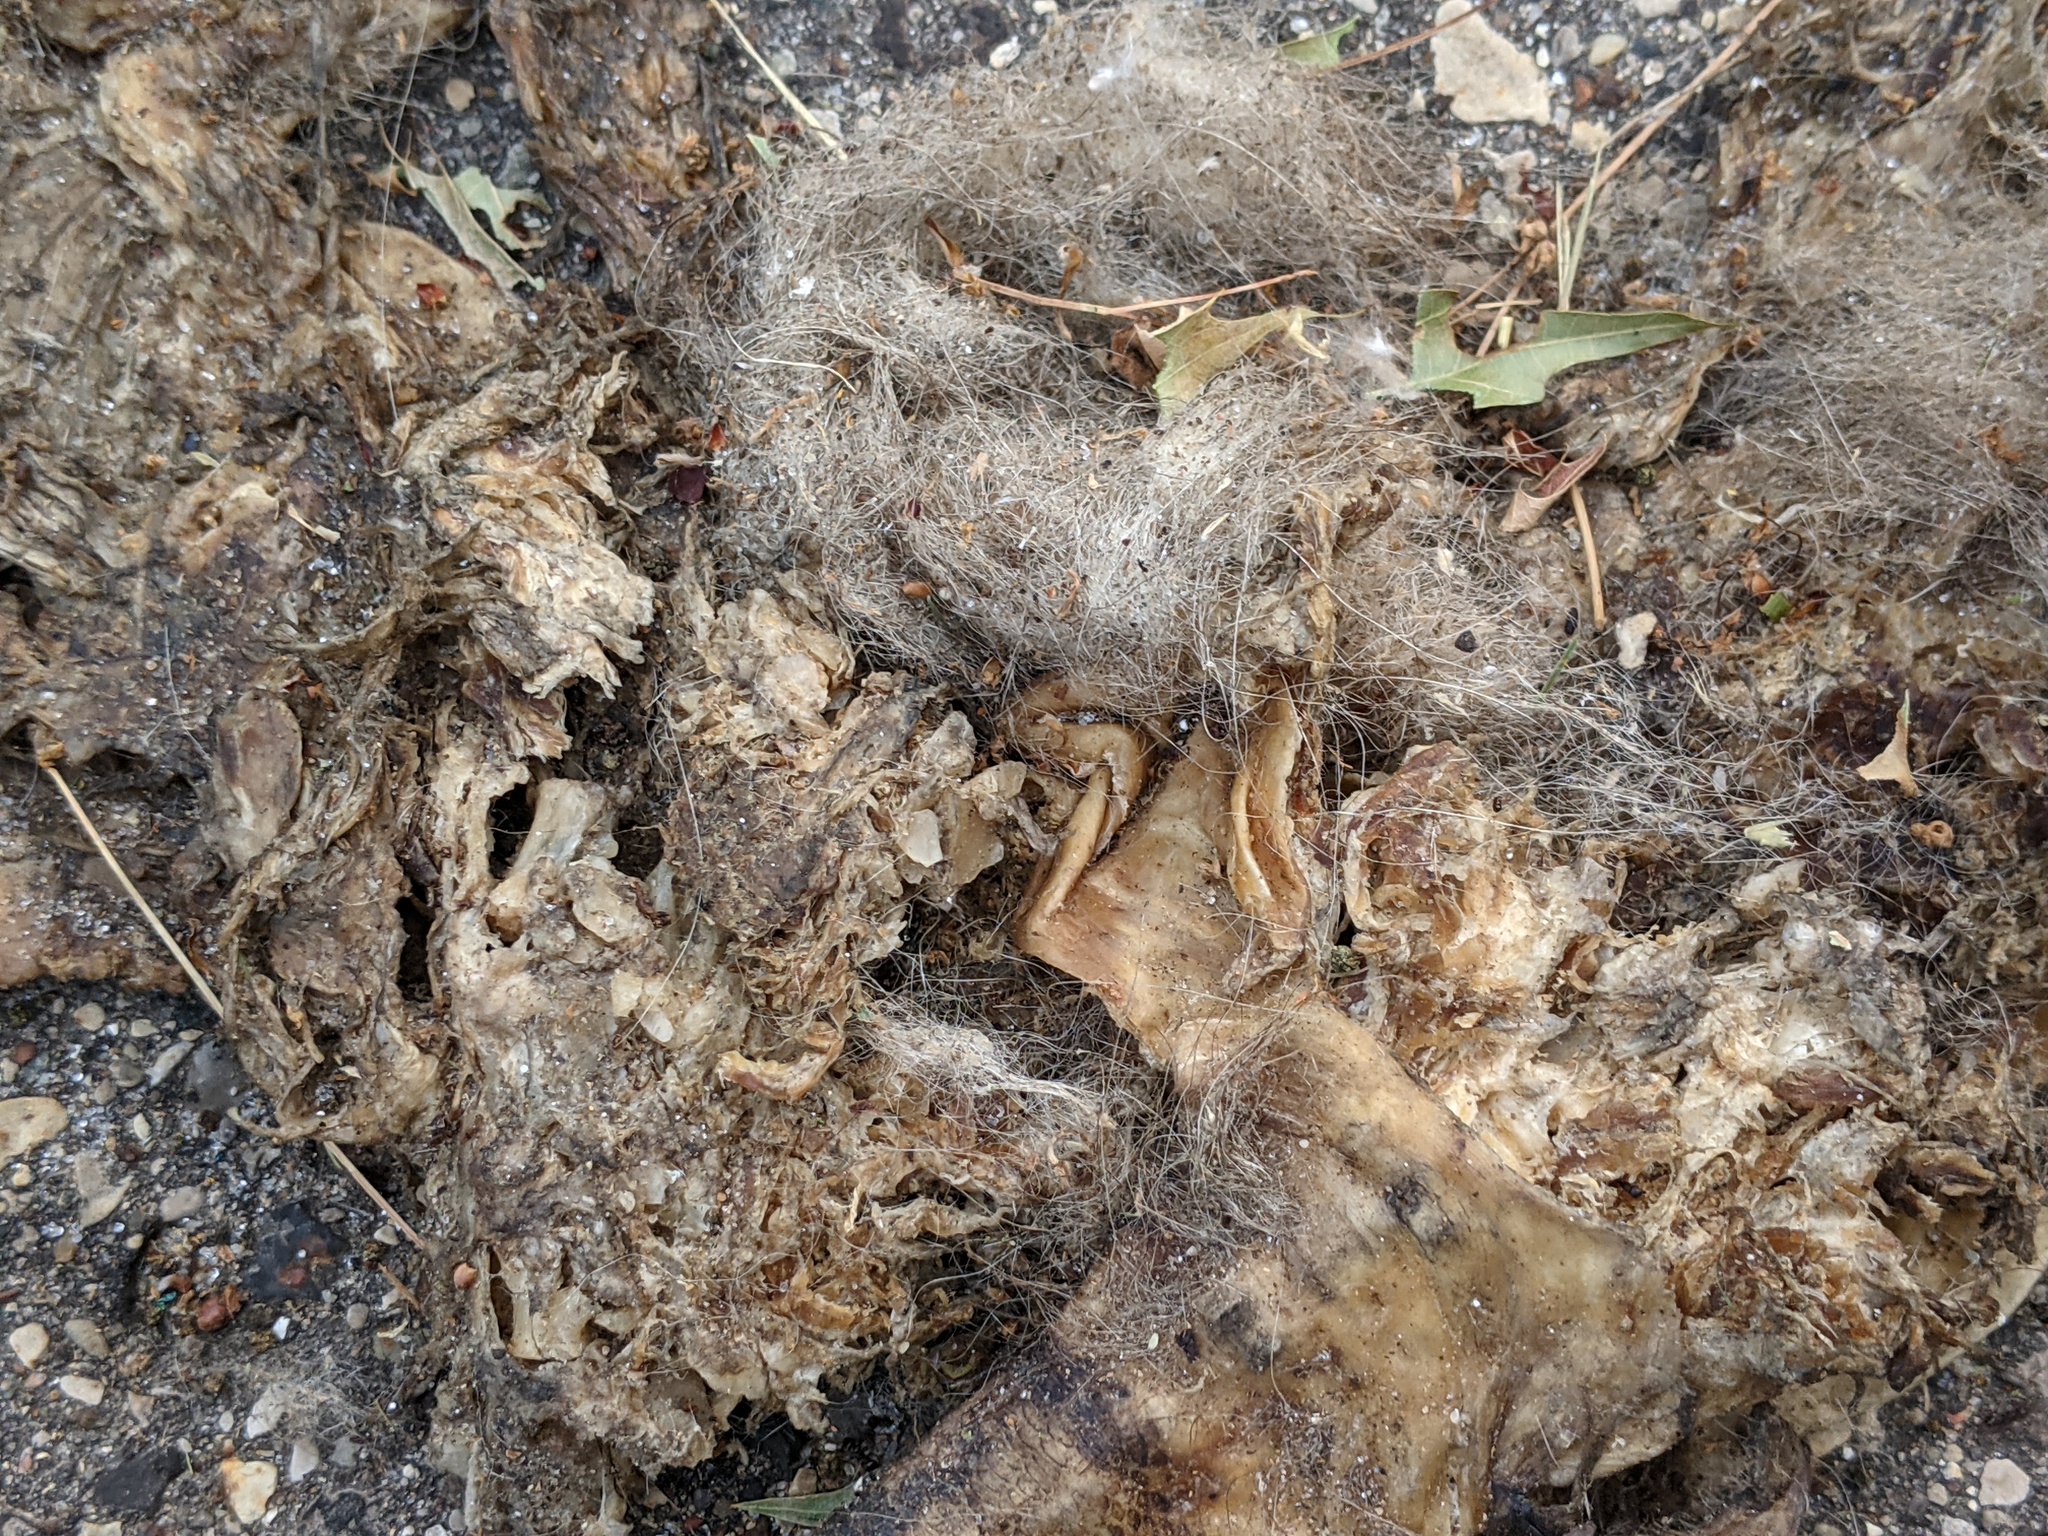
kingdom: Animalia
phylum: Chordata
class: Mammalia
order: Didelphimorphia
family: Didelphidae
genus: Didelphis
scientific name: Didelphis virginiana
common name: Virginia opossum
